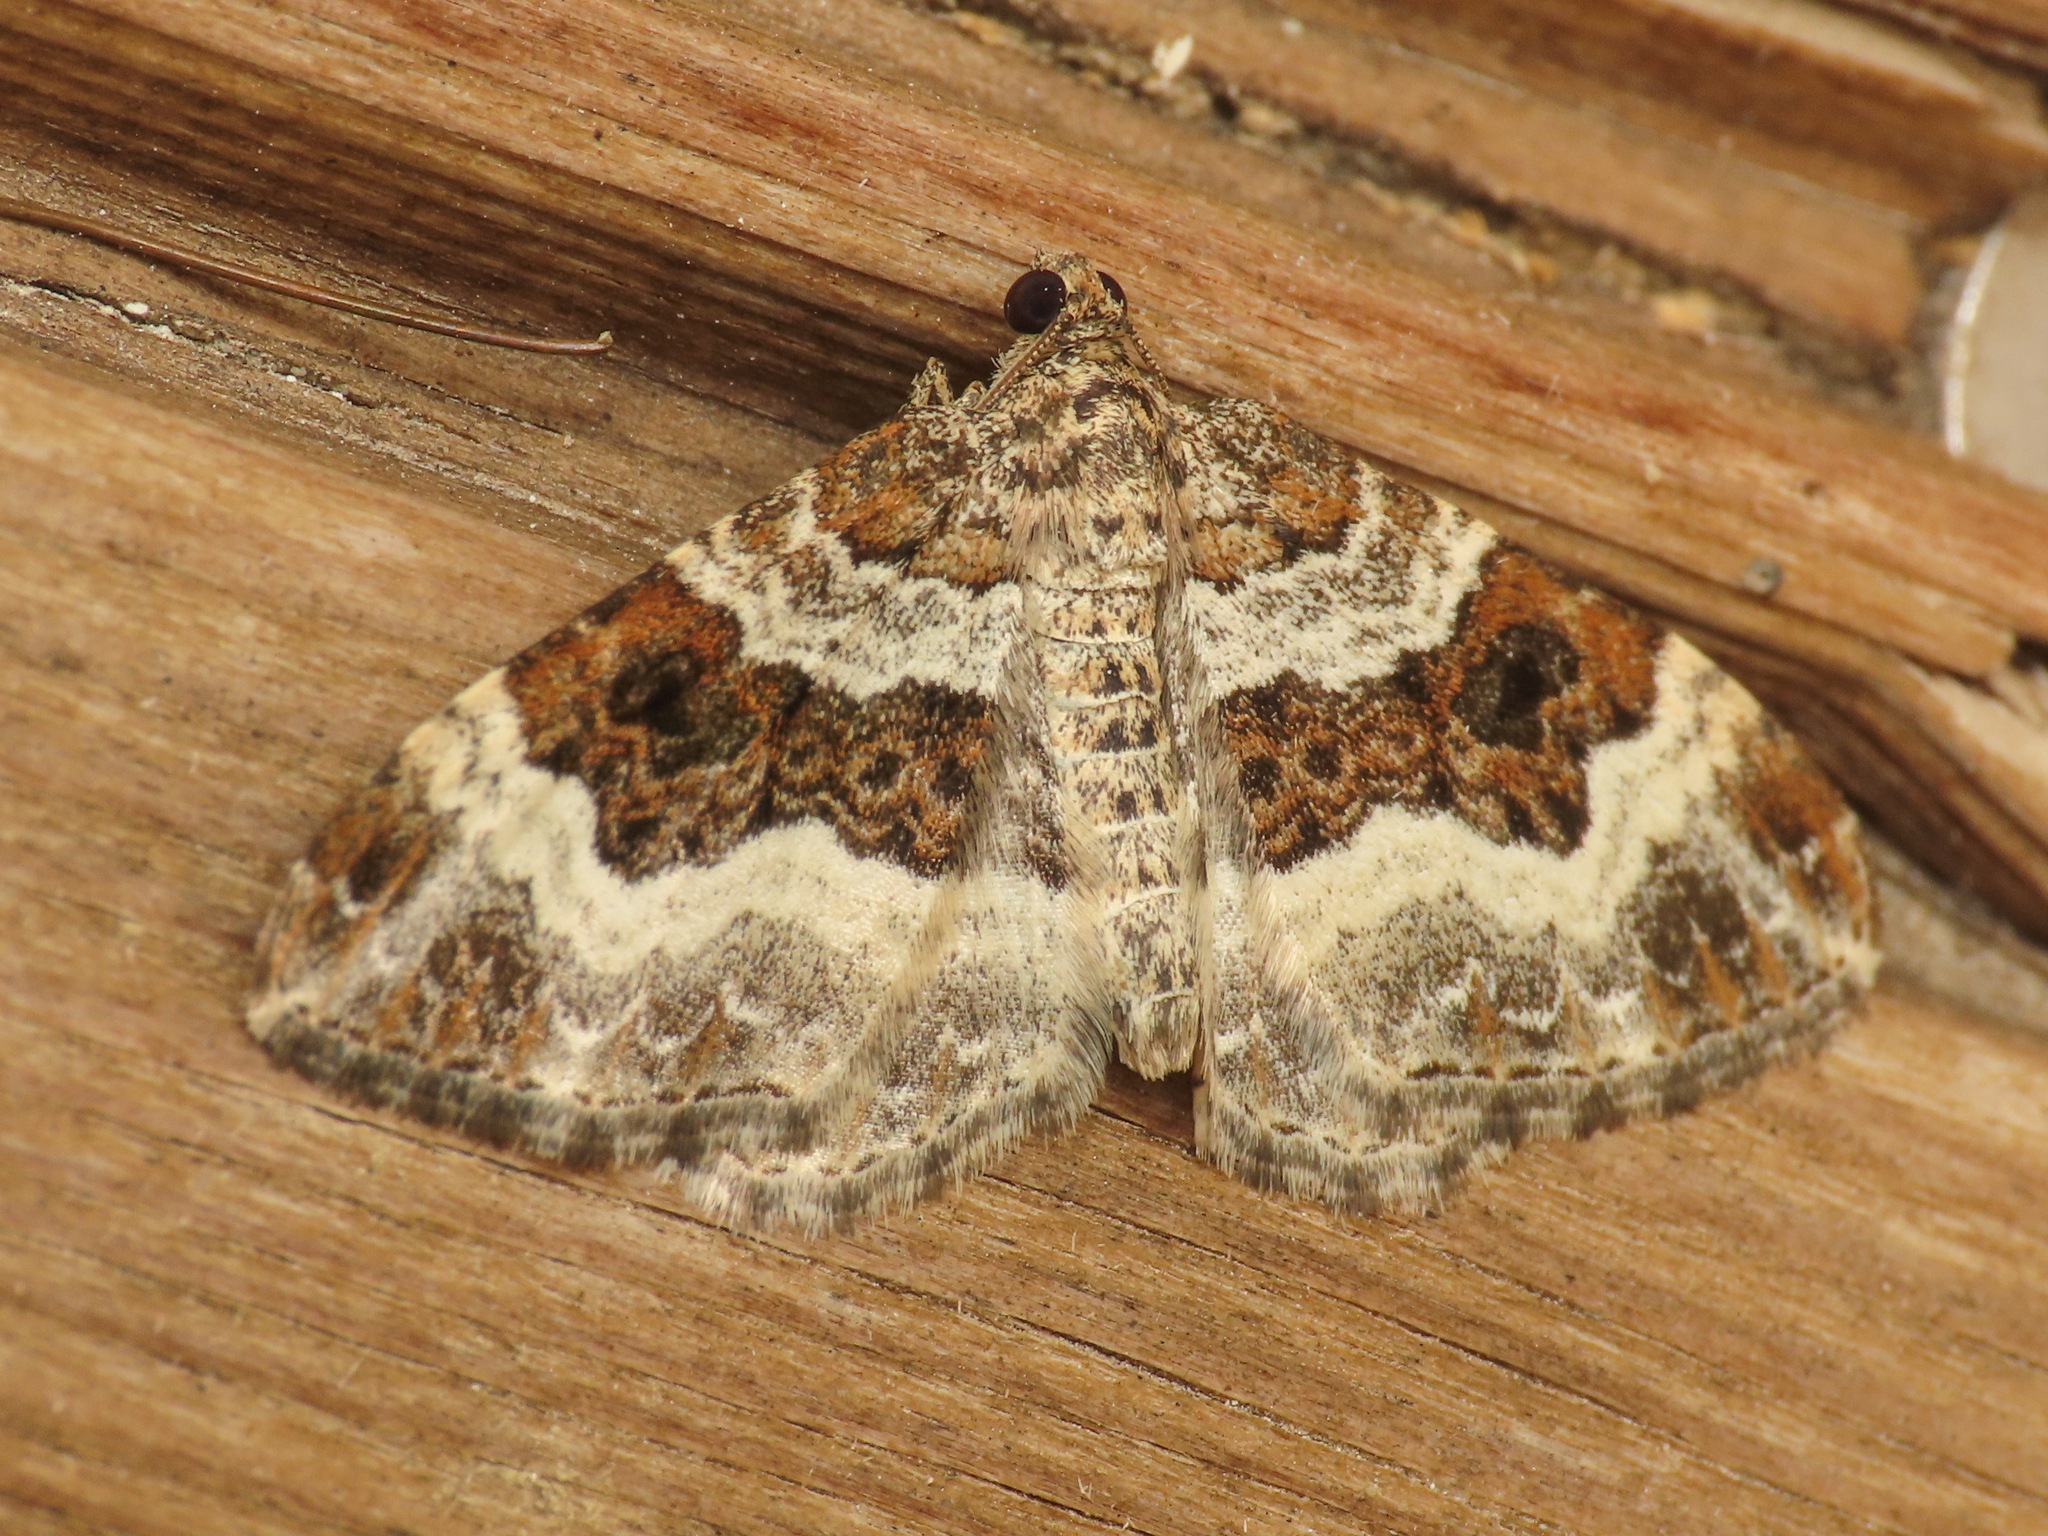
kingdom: Animalia
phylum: Arthropoda
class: Insecta
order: Lepidoptera
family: Geometridae
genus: Epirrhoe
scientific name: Epirrhoe alternata
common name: Common carpet
